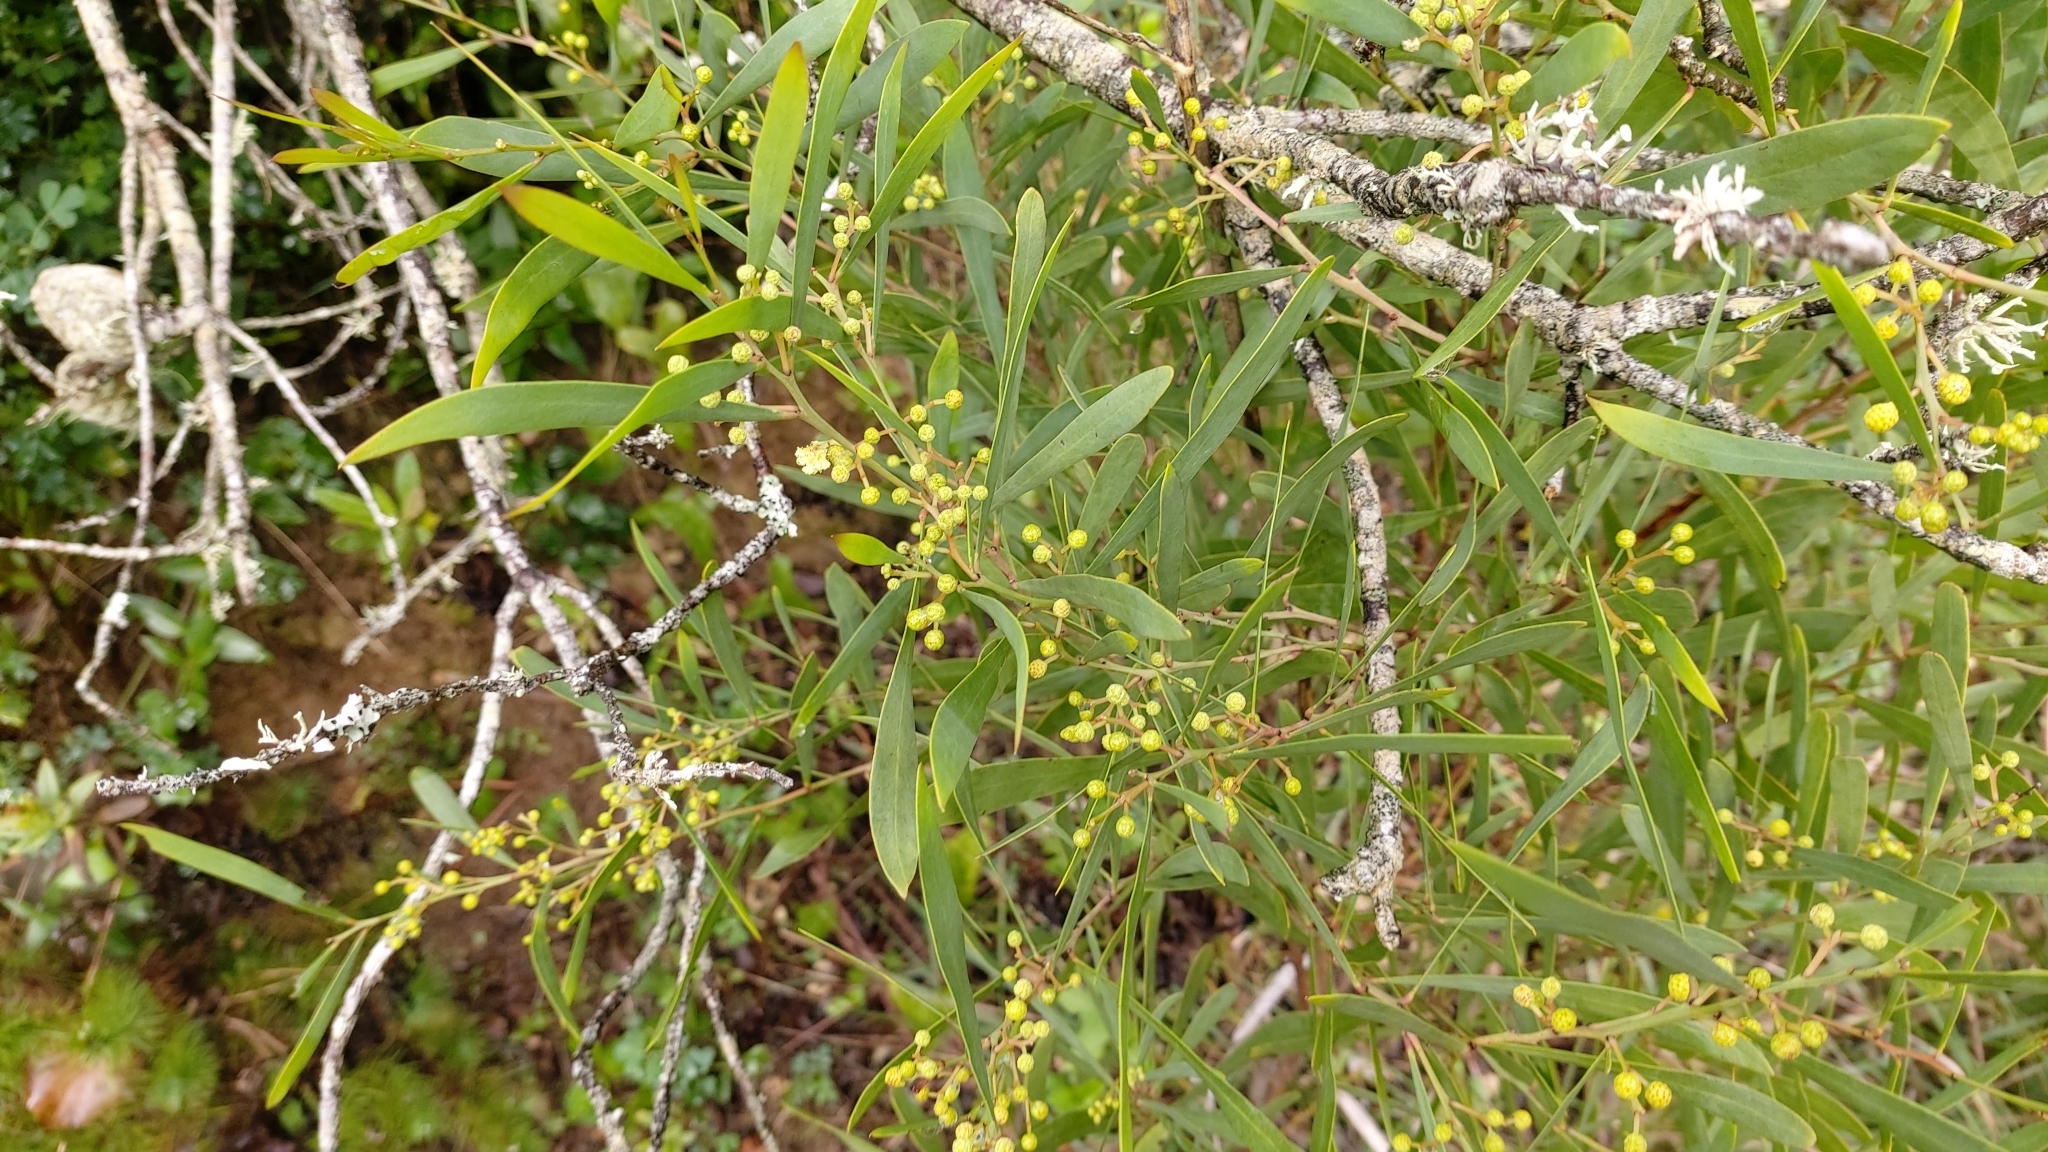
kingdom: Plantae
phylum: Tracheophyta
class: Magnoliopsida
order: Fabales
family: Fabaceae
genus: Acacia
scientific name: Acacia provincialis
